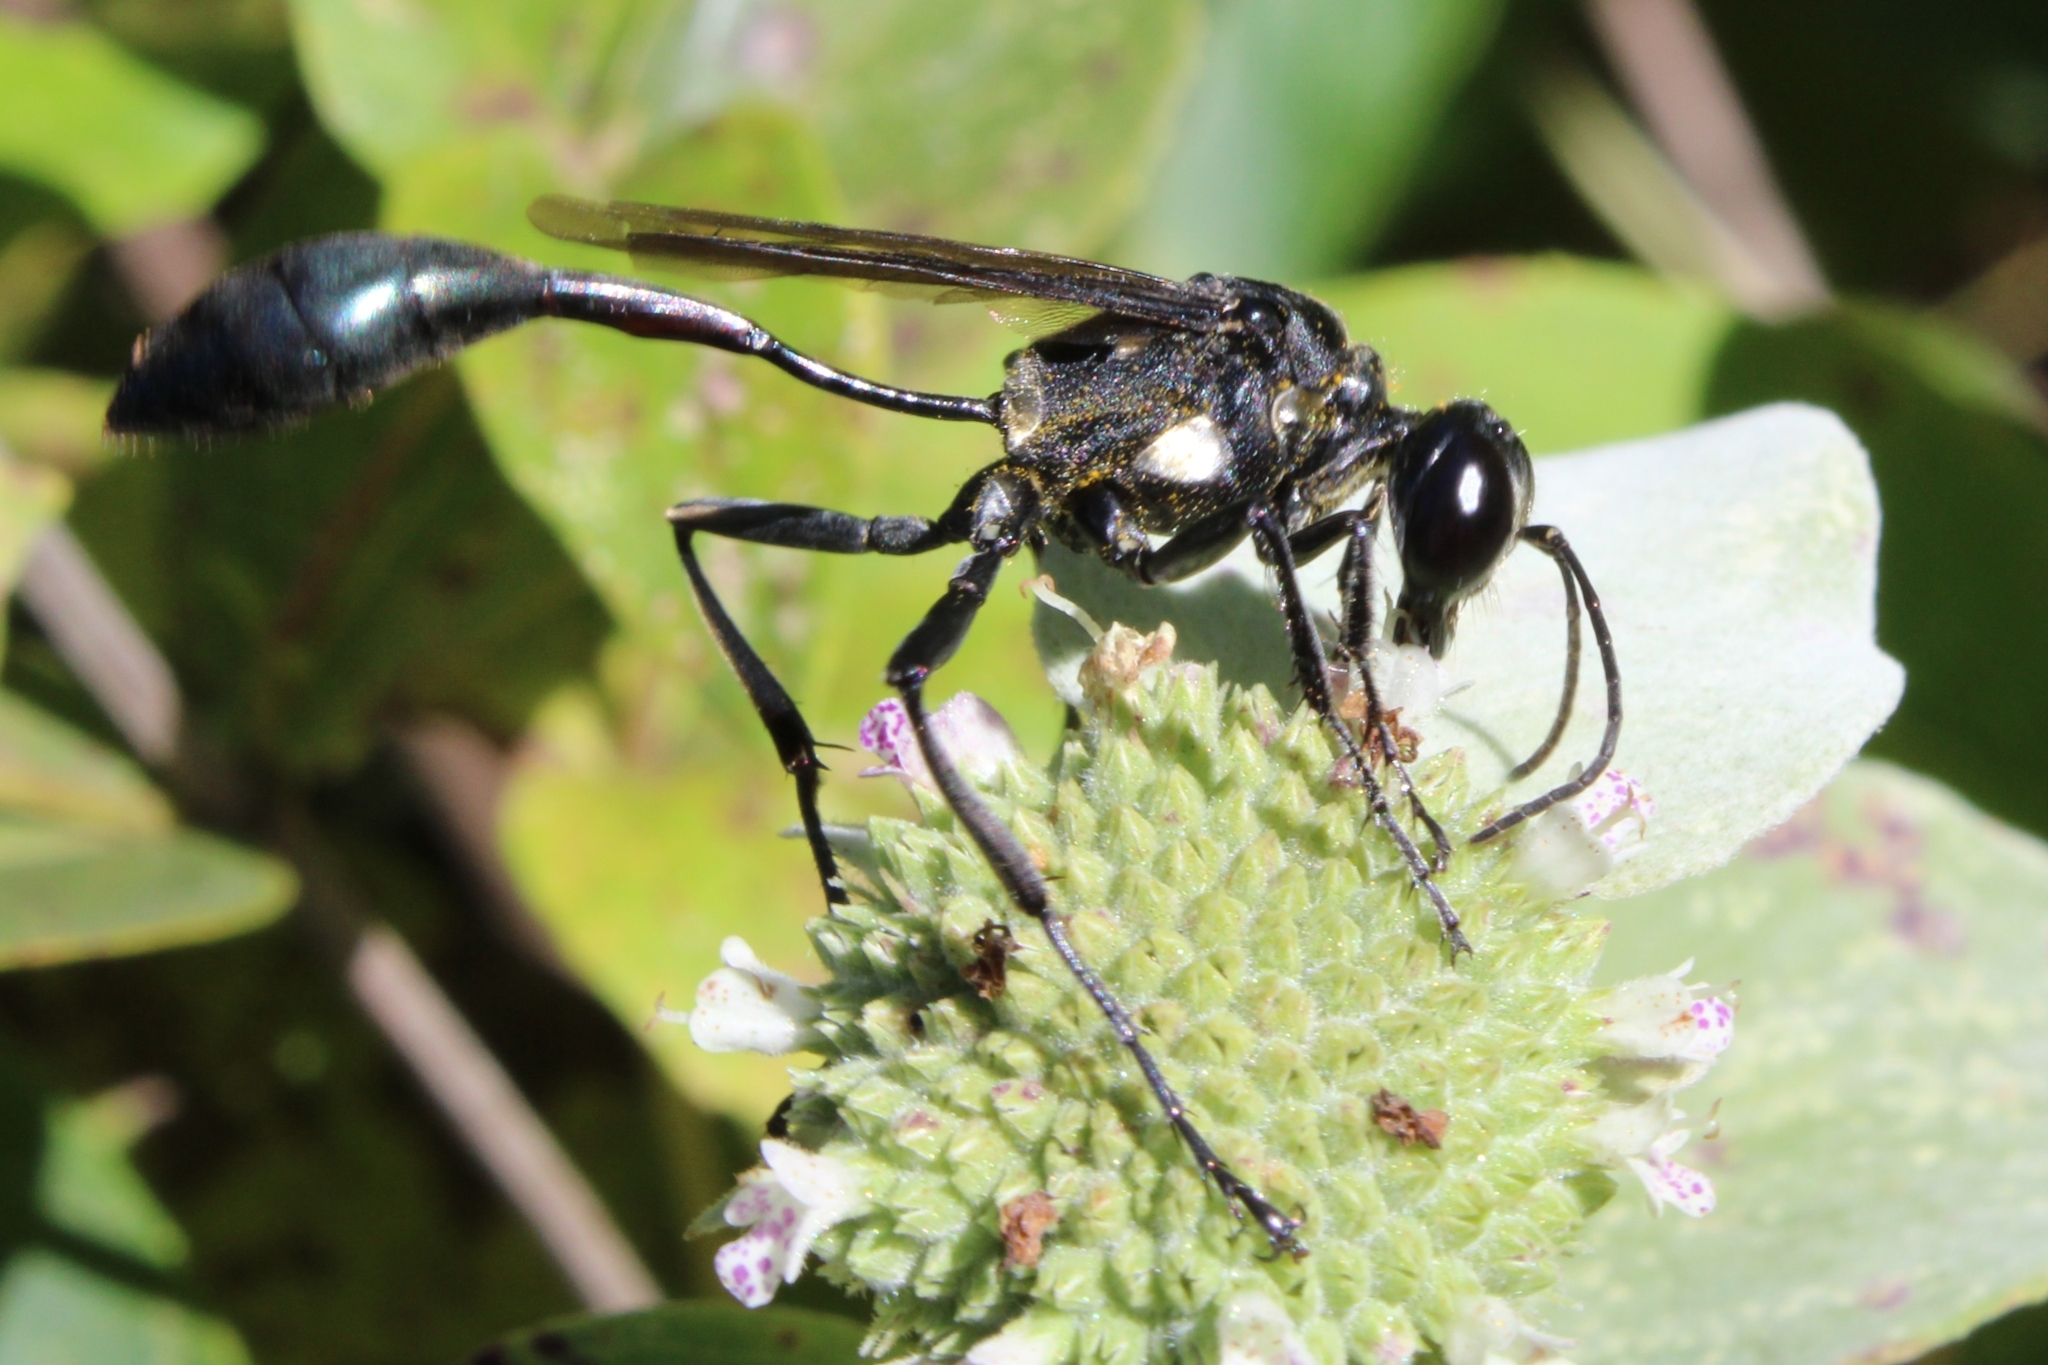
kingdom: Animalia
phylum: Arthropoda
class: Insecta
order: Hymenoptera
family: Sphecidae
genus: Eremnophila
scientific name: Eremnophila aureonotata
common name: Gold-marked thread-waisted wasp
